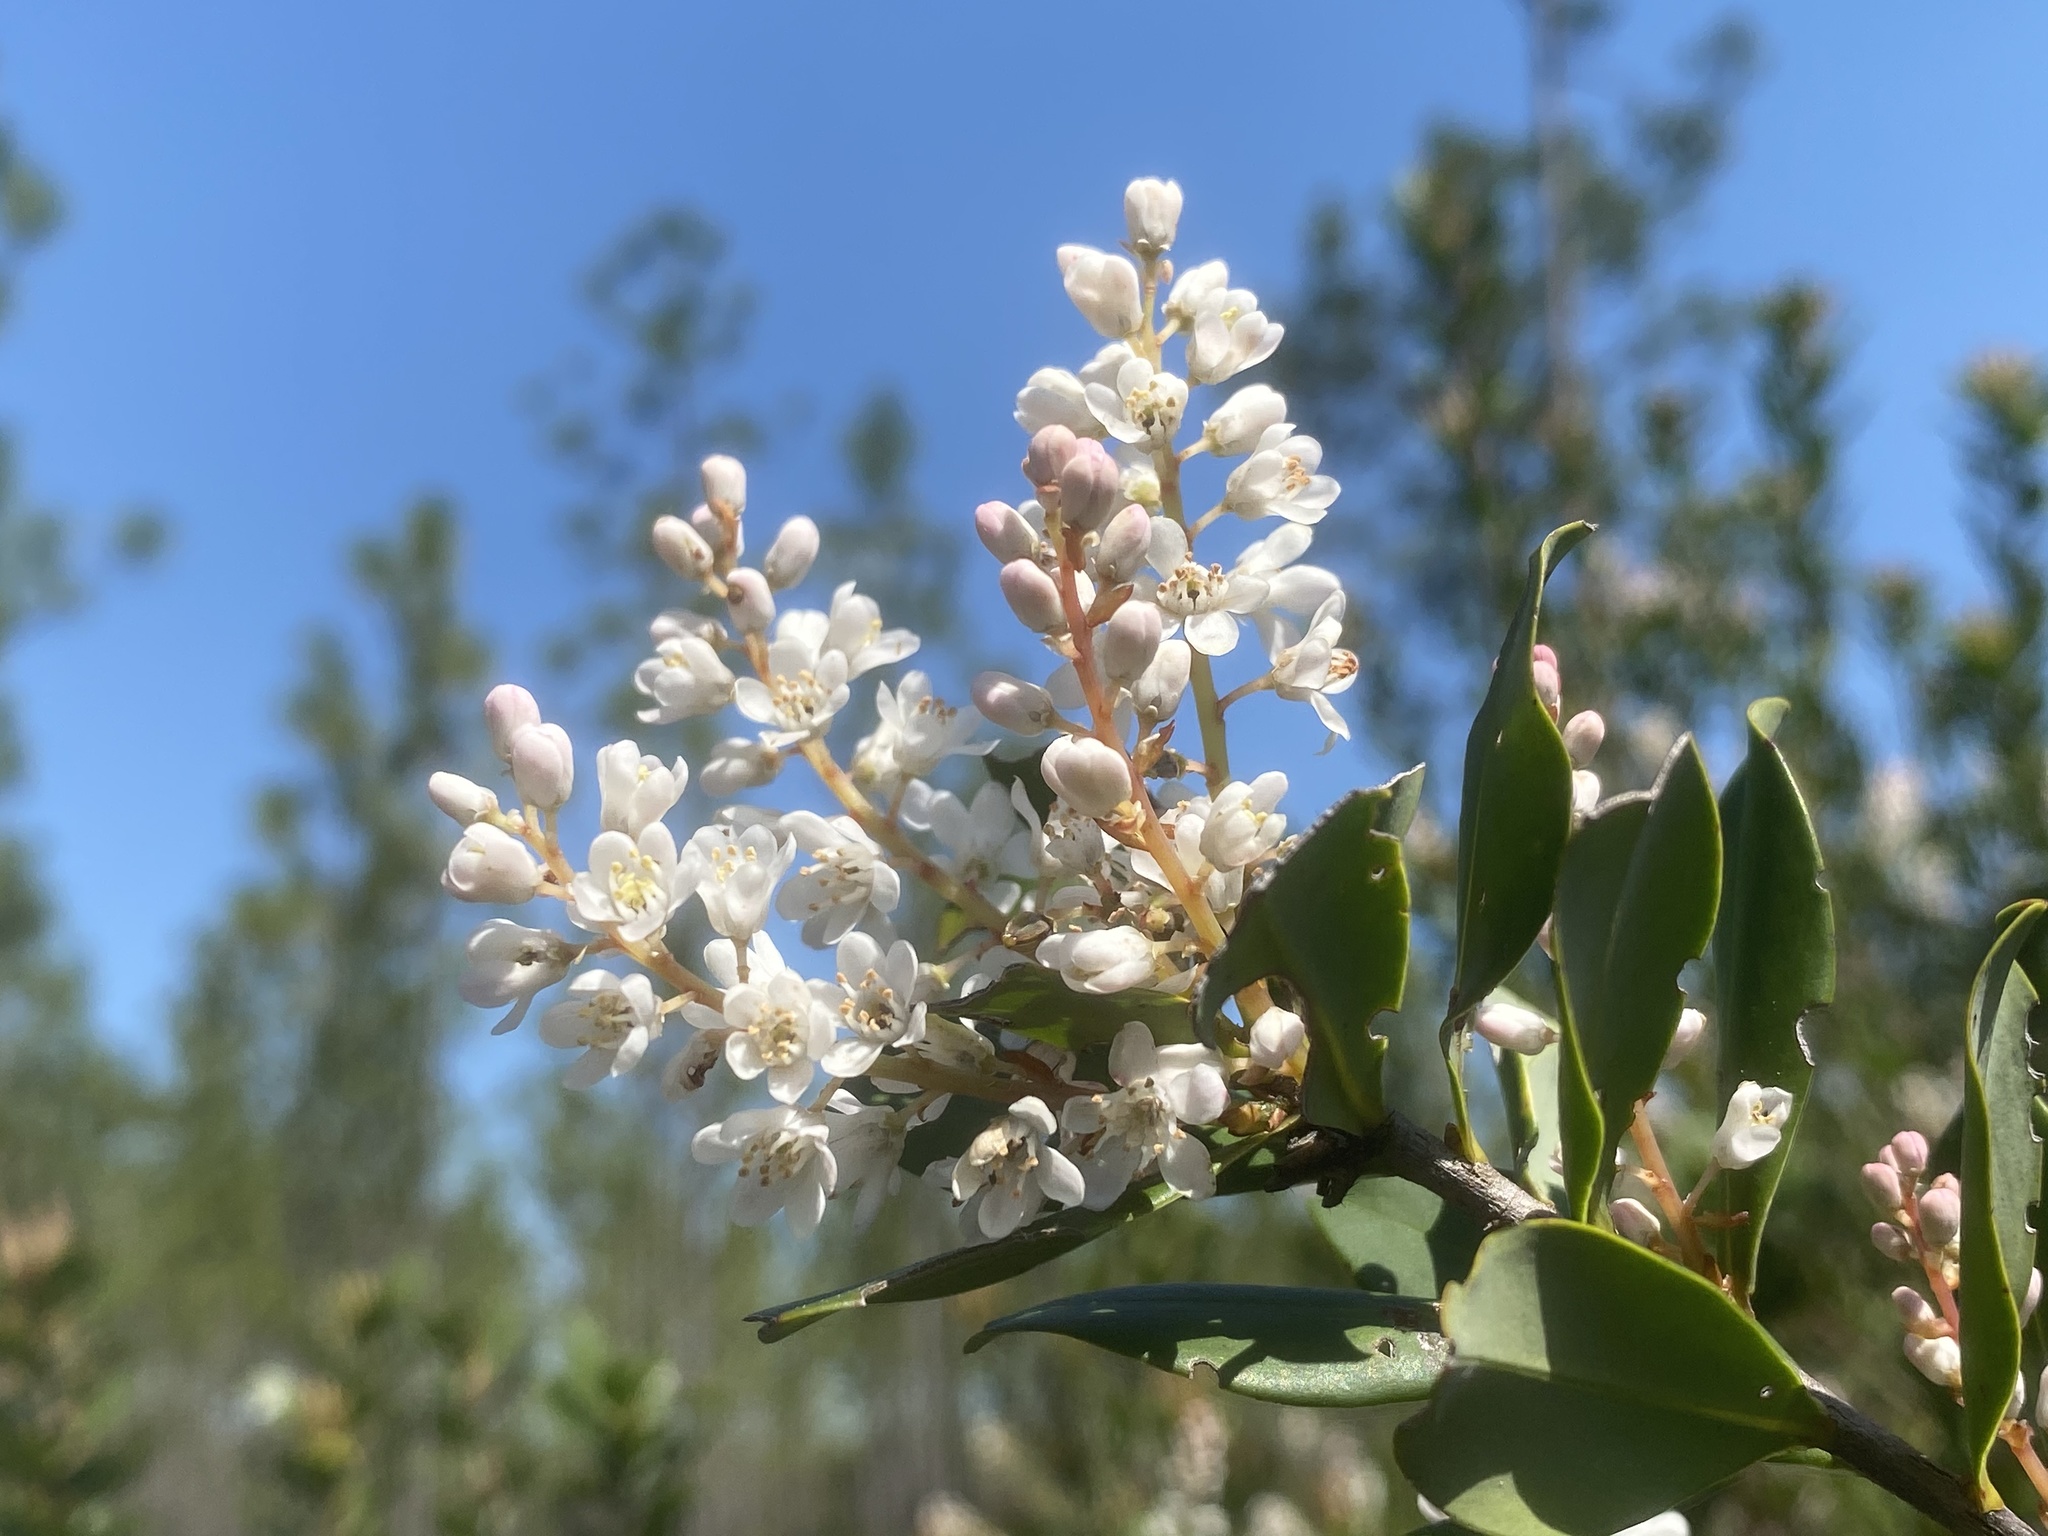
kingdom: Plantae
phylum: Tracheophyta
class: Magnoliopsida
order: Ericales
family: Cyrillaceae
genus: Cliftonia
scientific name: Cliftonia monophylla
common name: Titi
